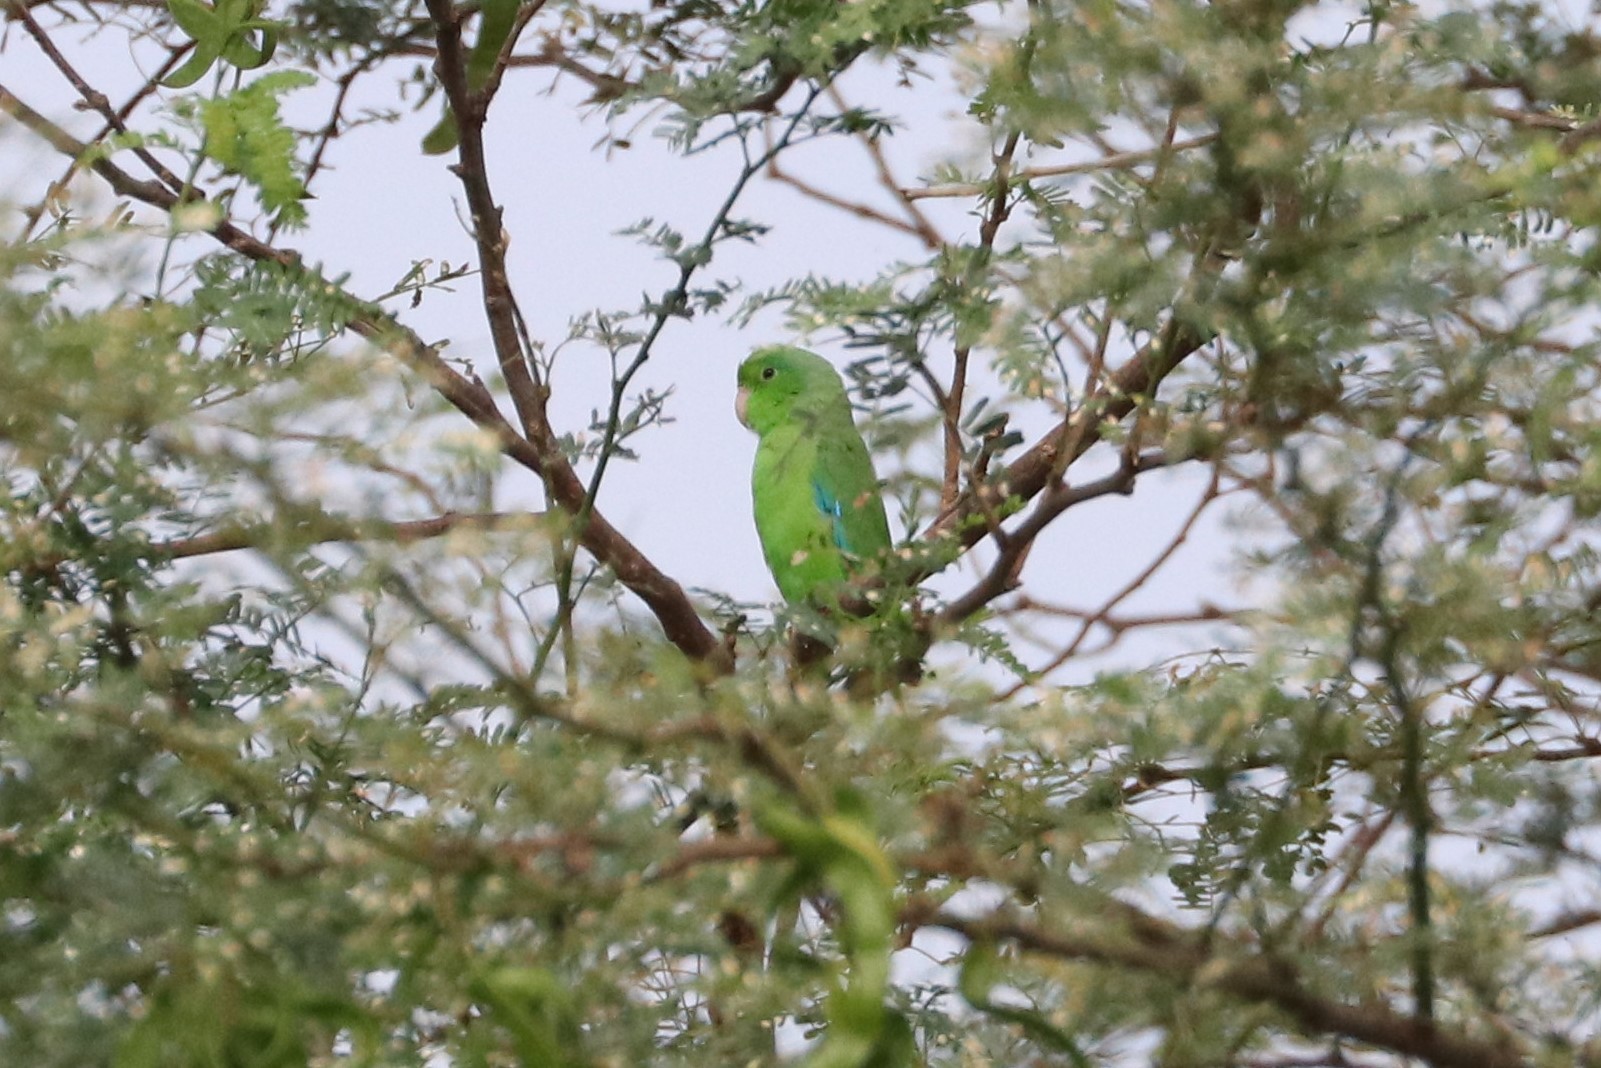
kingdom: Animalia
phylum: Chordata
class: Aves
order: Psittaciformes
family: Psittacidae
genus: Forpus
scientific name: Forpus passerinus
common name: Green-rumped parrotlet
